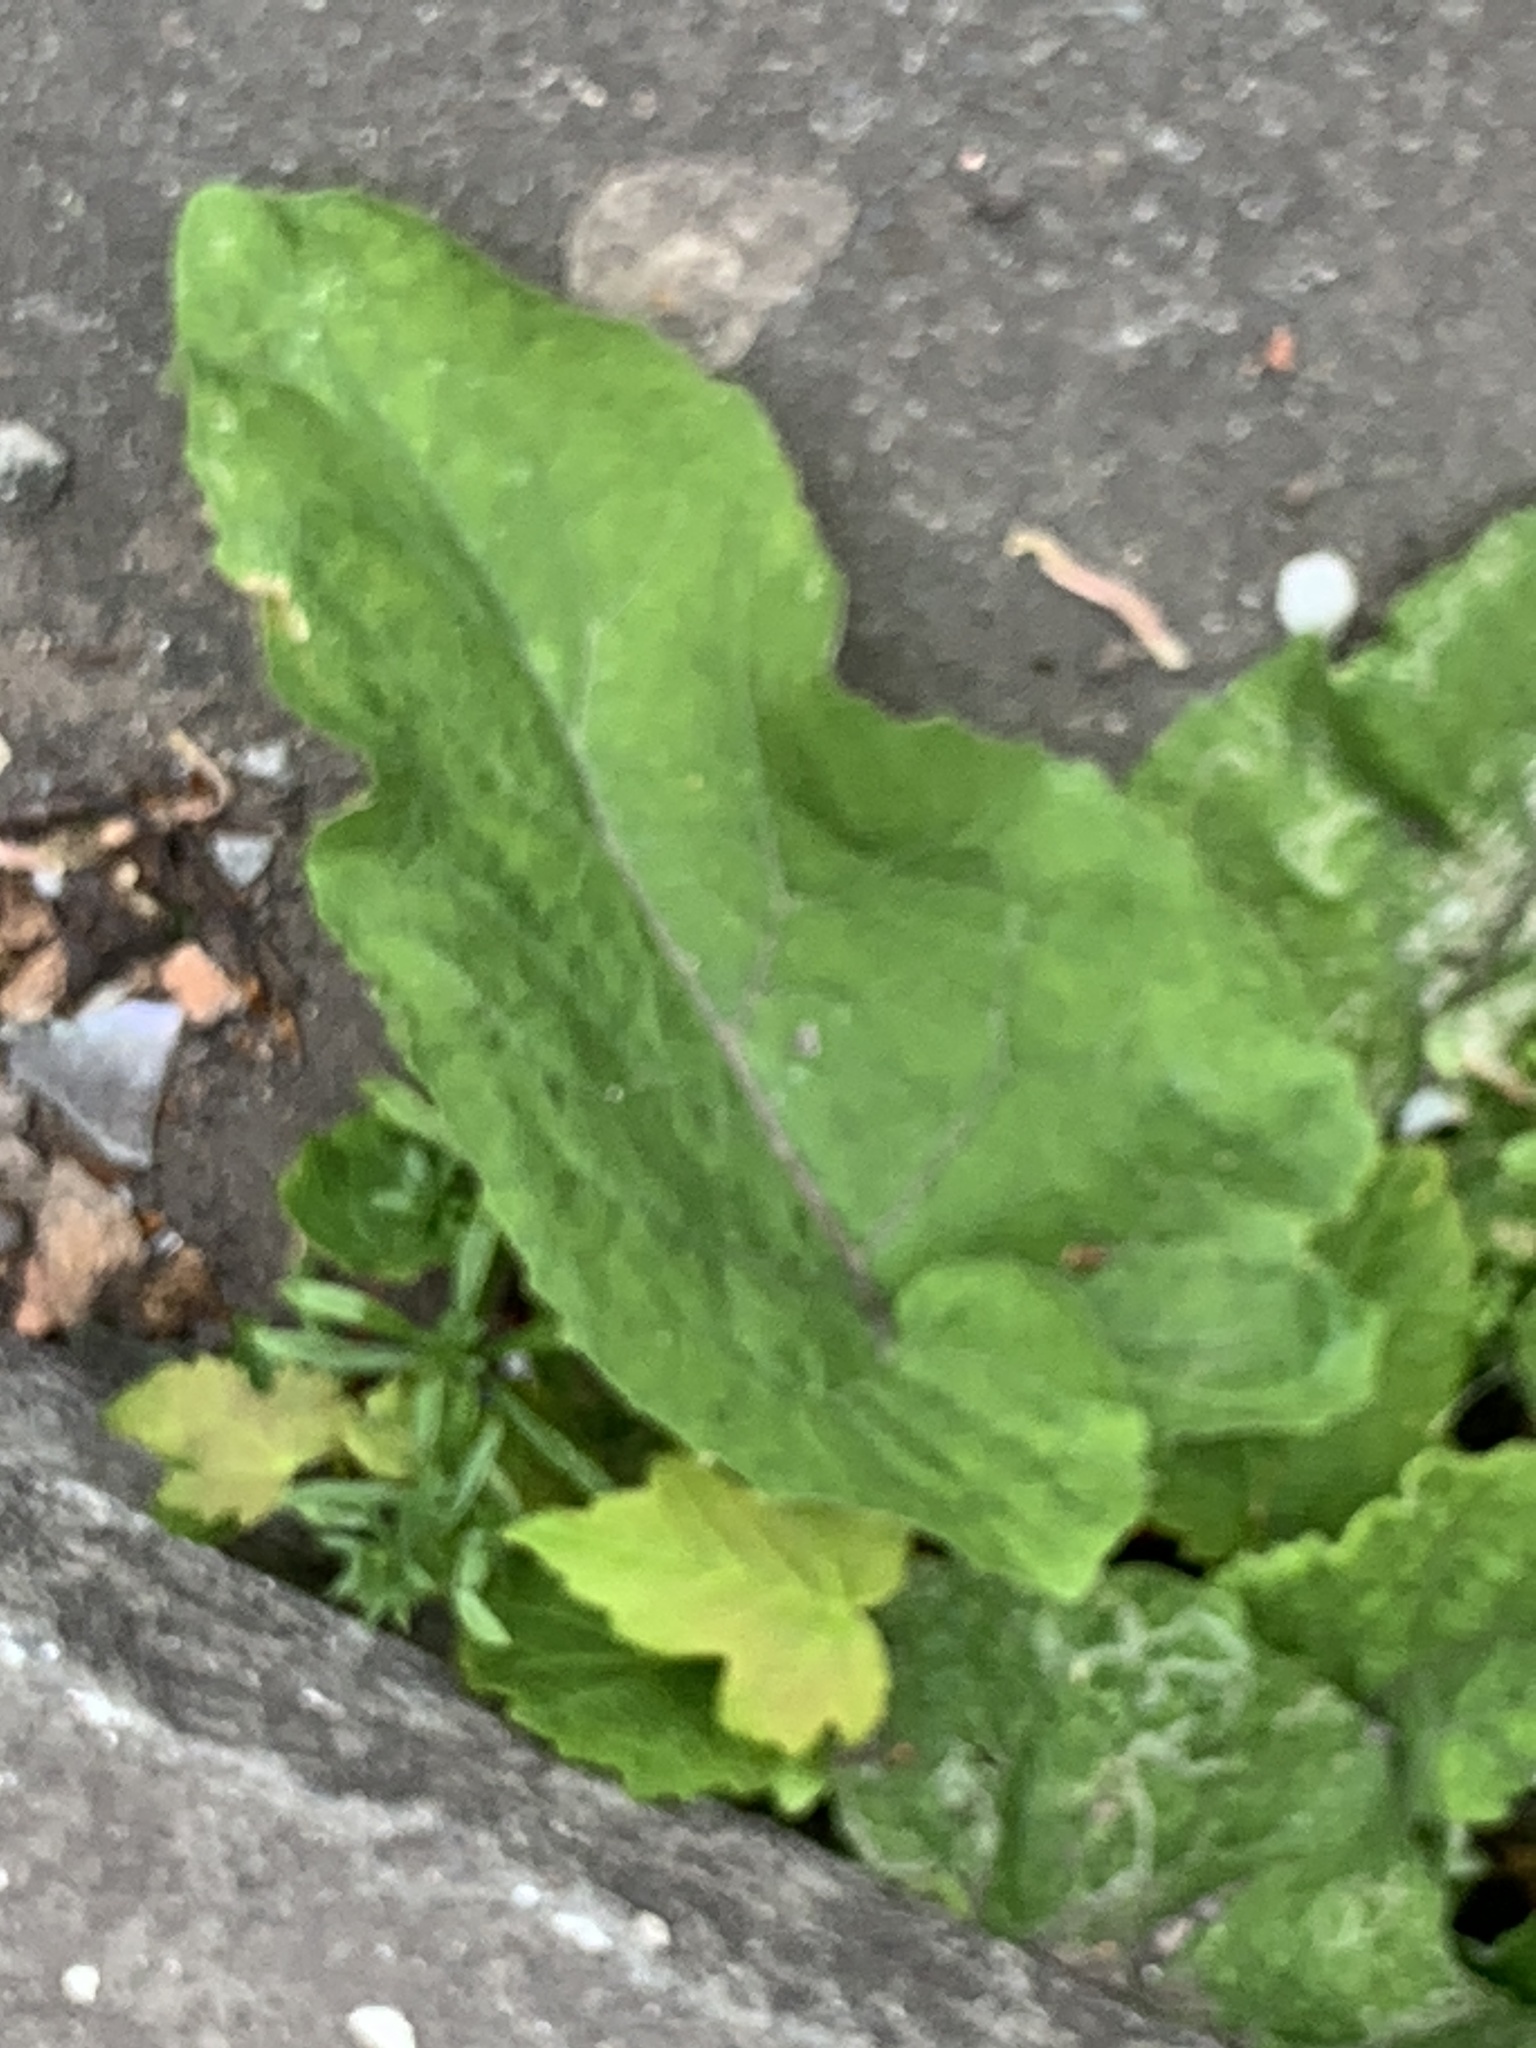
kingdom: Plantae
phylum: Tracheophyta
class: Magnoliopsida
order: Asterales
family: Asteraceae
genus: Arctium
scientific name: Arctium minus
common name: Lesser burdock
